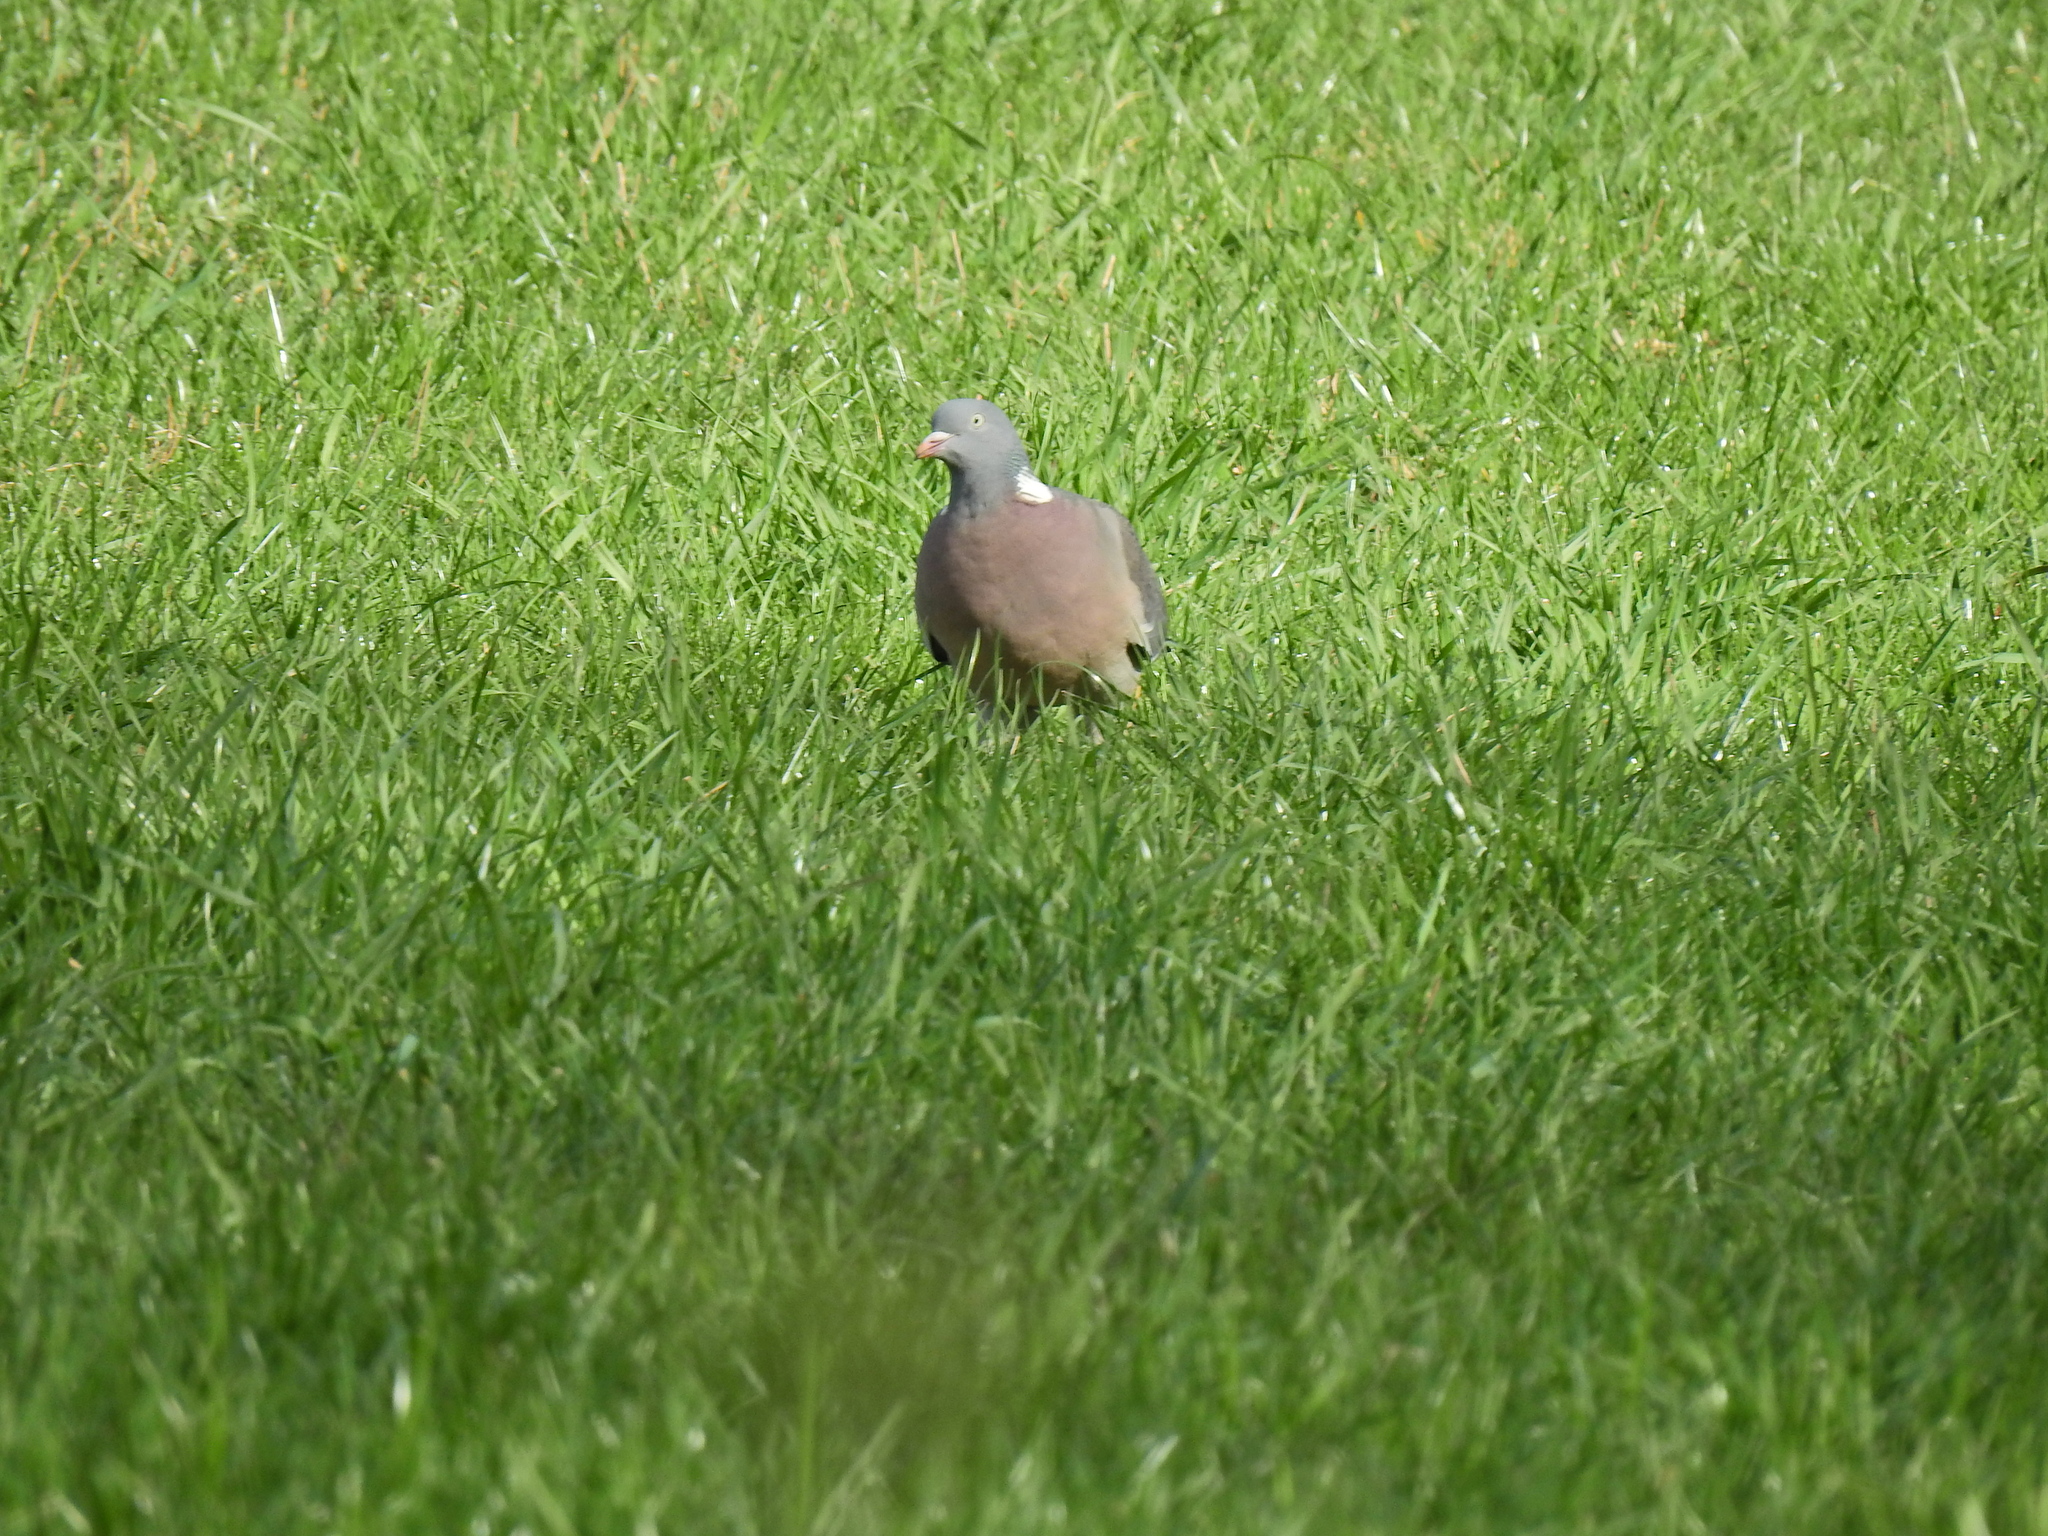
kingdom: Animalia
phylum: Chordata
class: Aves
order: Columbiformes
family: Columbidae
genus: Columba
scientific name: Columba palumbus
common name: Common wood pigeon
